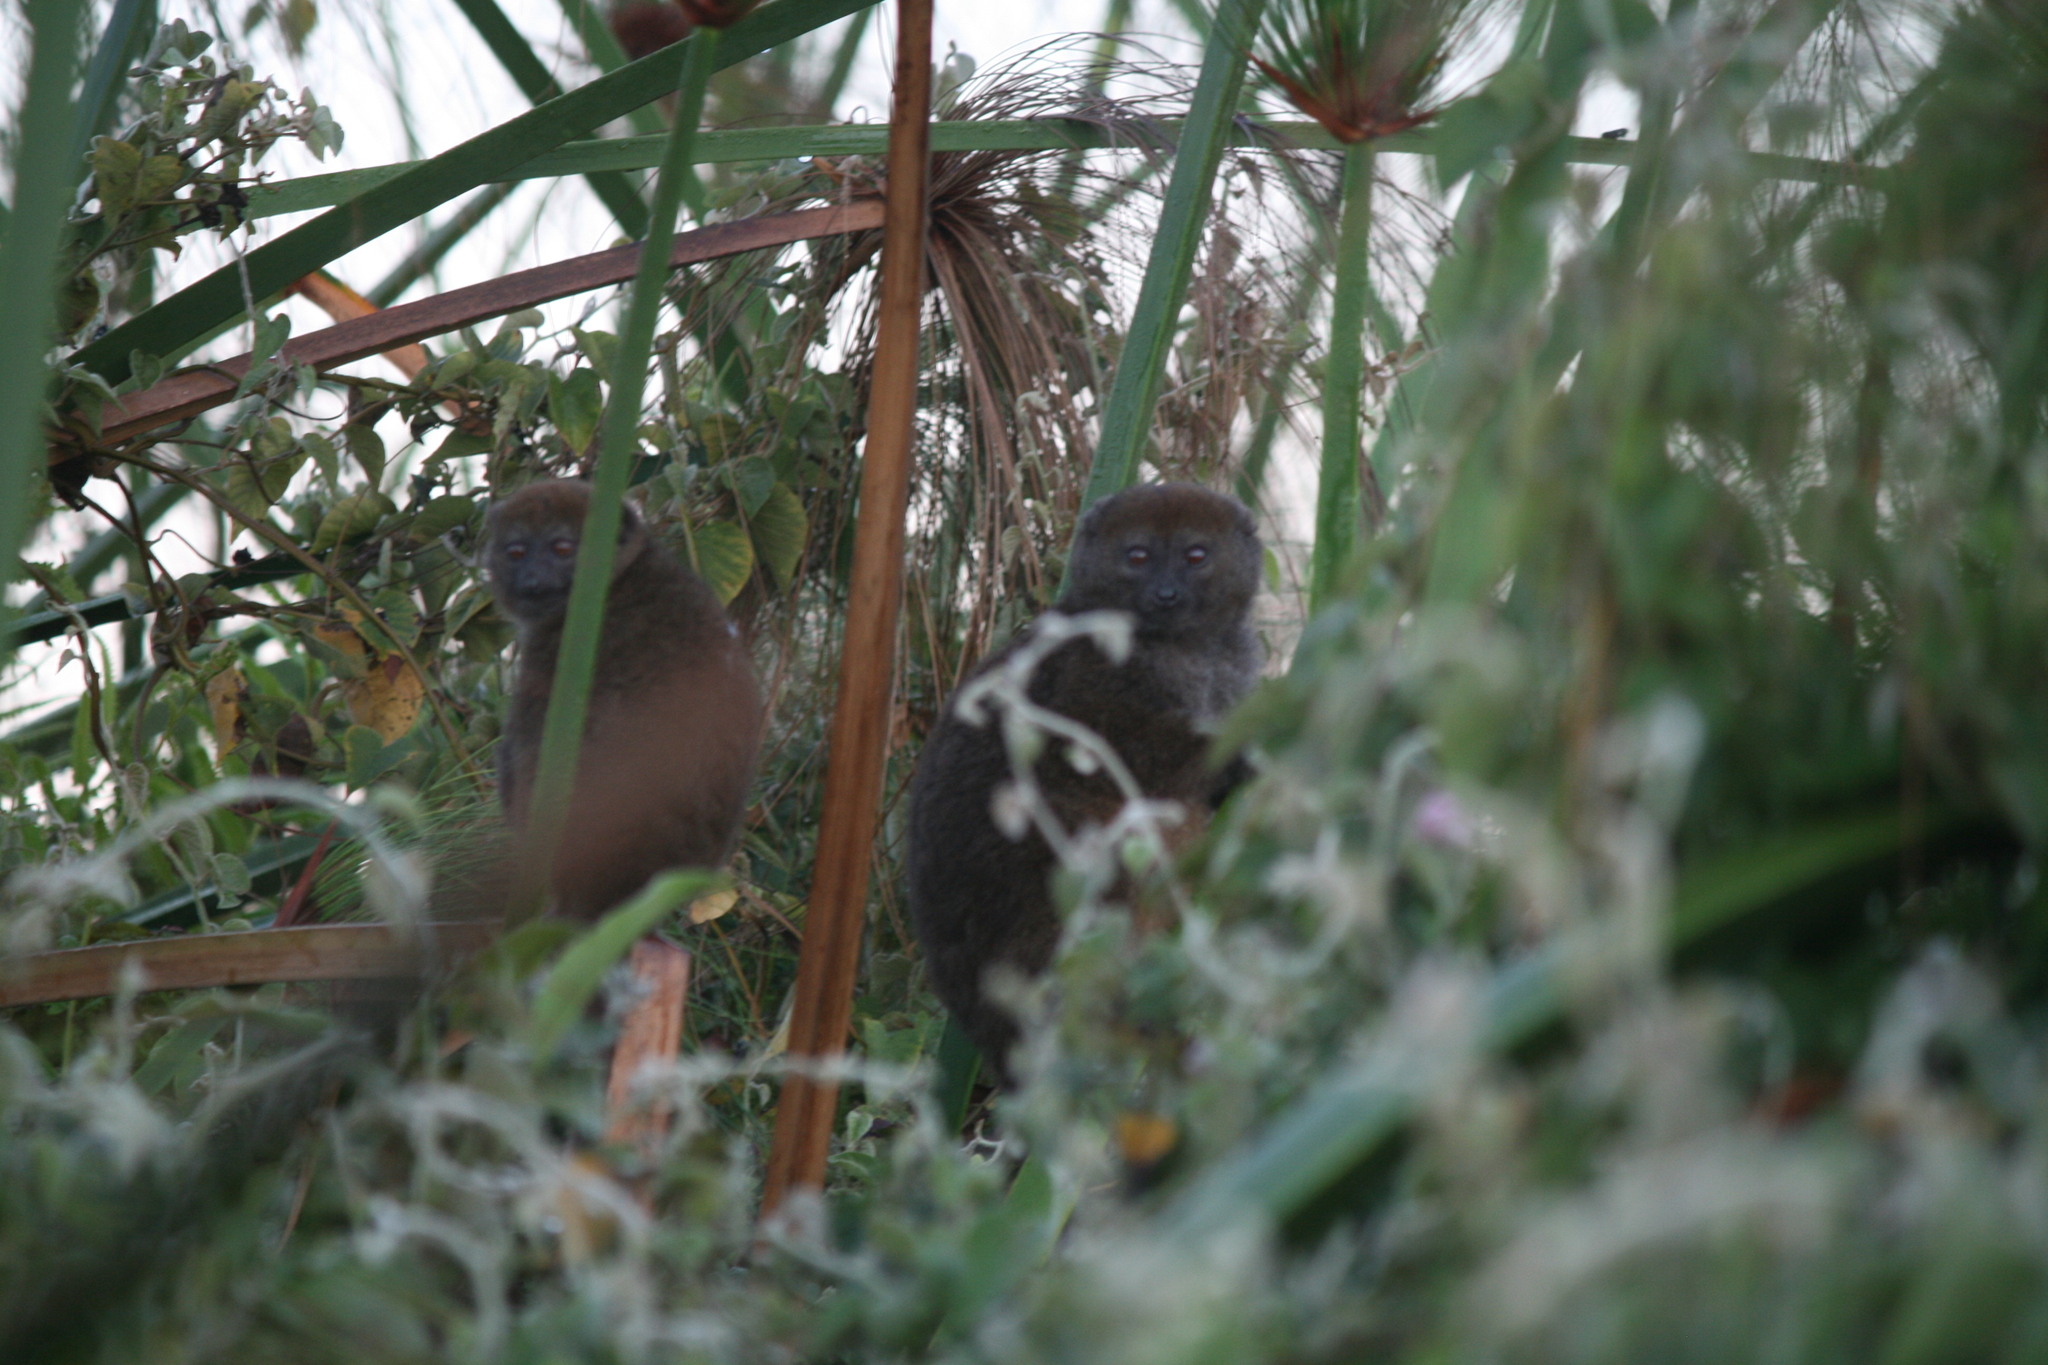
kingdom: Animalia
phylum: Chordata
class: Mammalia
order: Primates
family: Lemuridae
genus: Hapalemur
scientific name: Hapalemur alaotrensis
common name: Bandro
